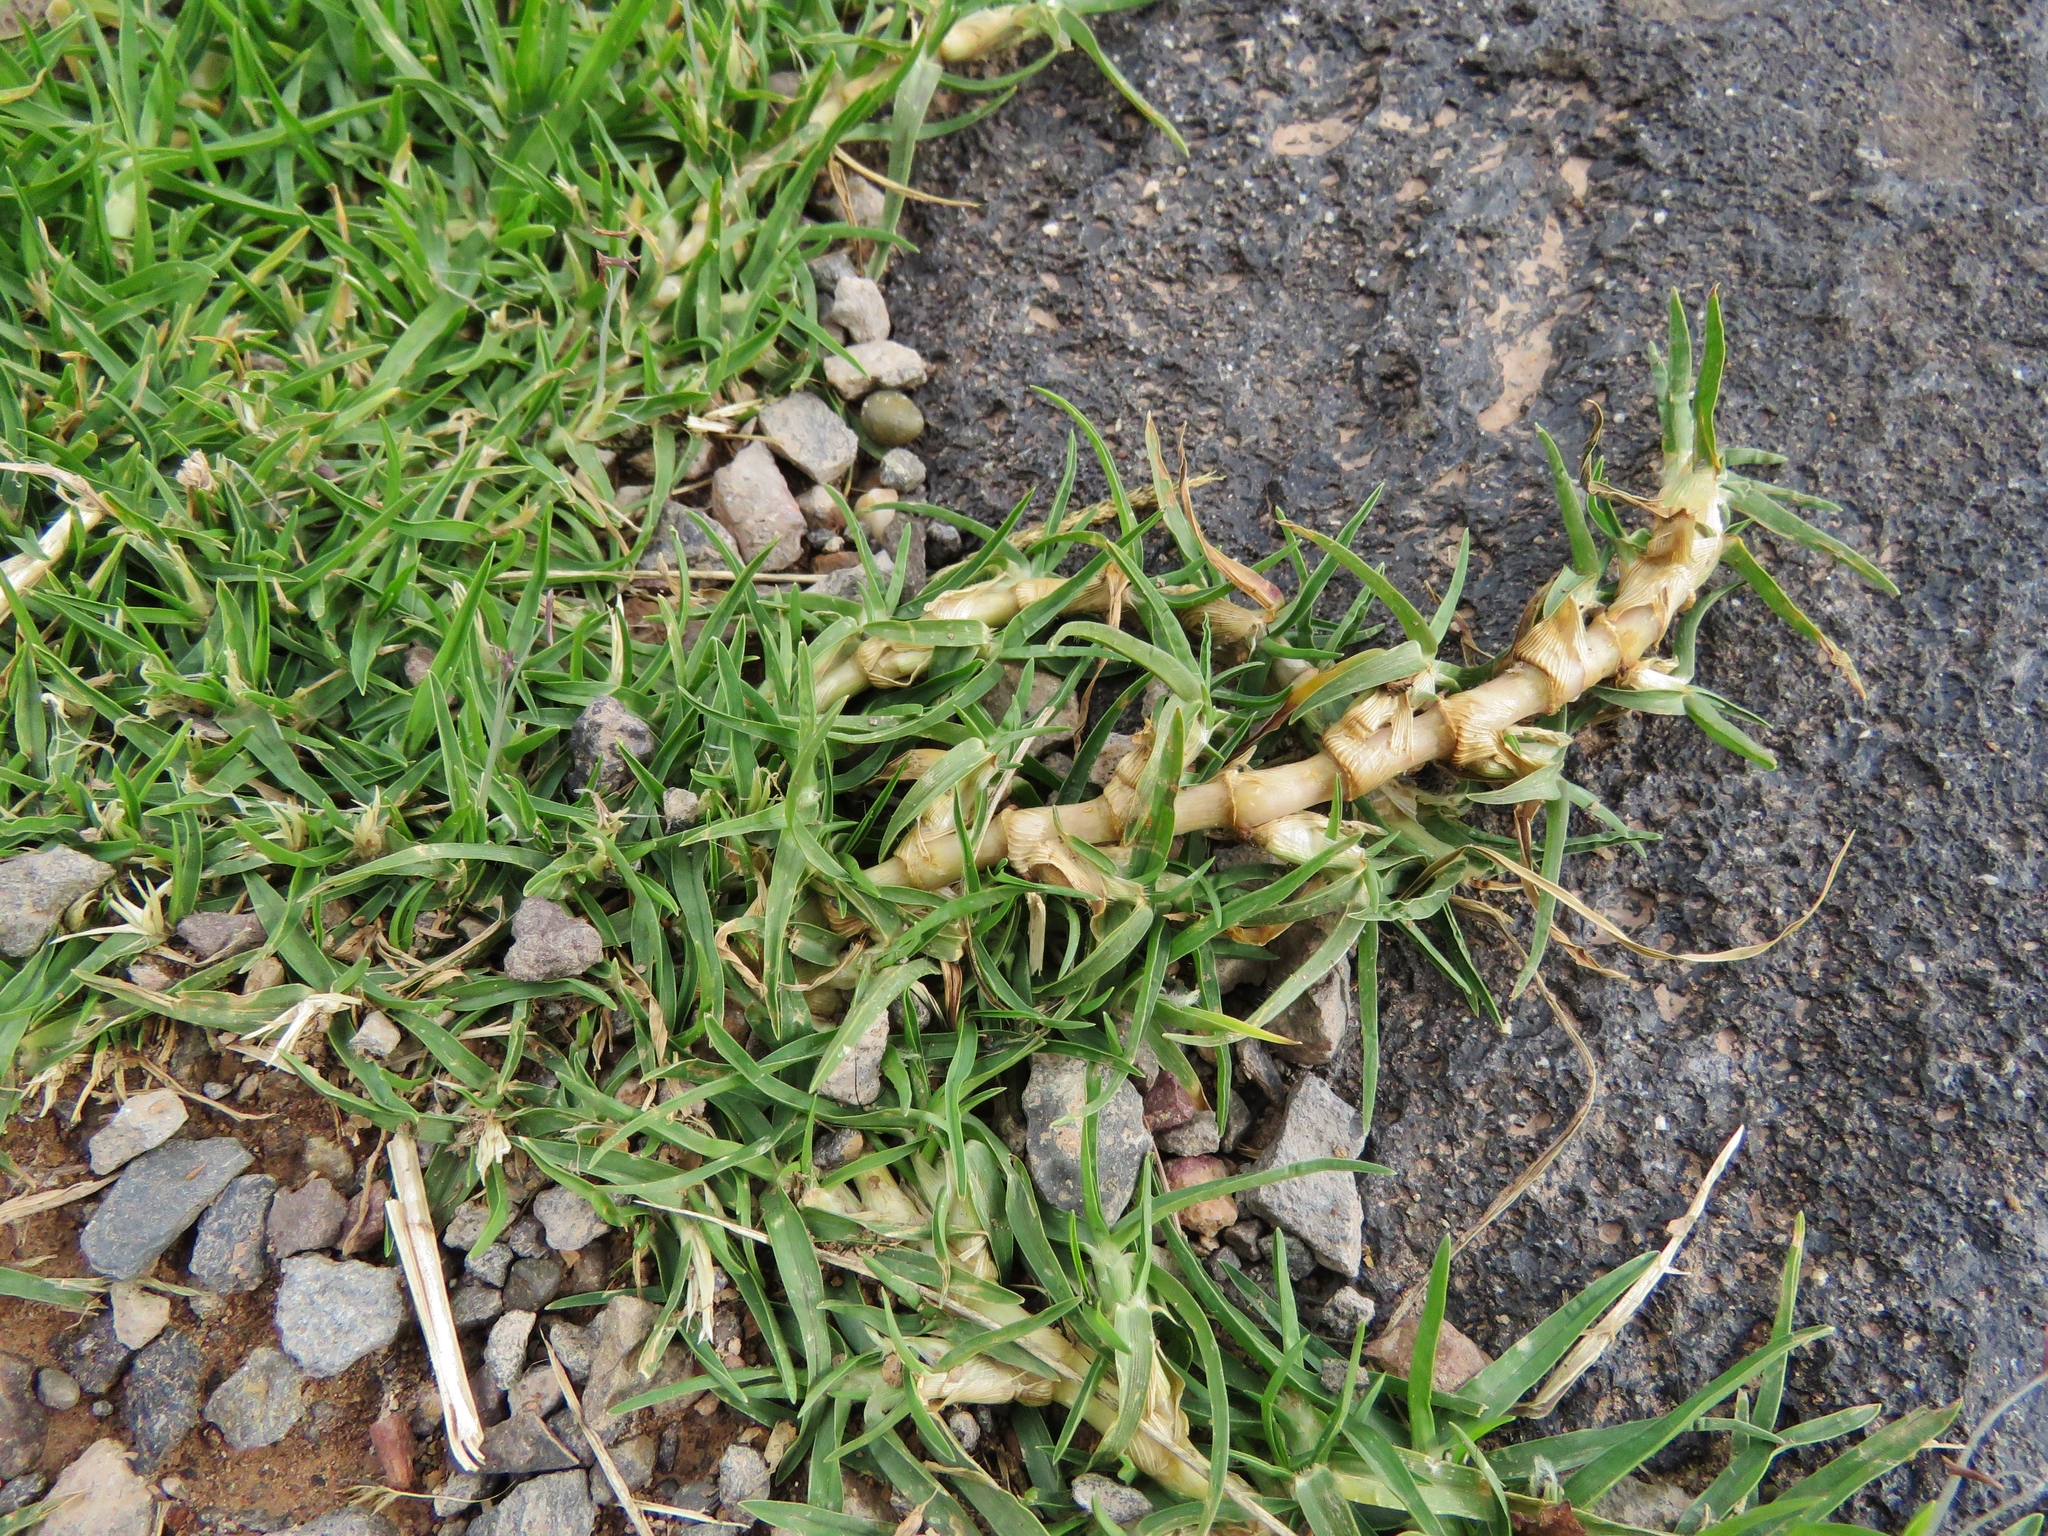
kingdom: Plantae
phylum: Tracheophyta
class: Liliopsida
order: Poales
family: Poaceae
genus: Cenchrus
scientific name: Cenchrus clandestinus
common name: Kikuyugrass
